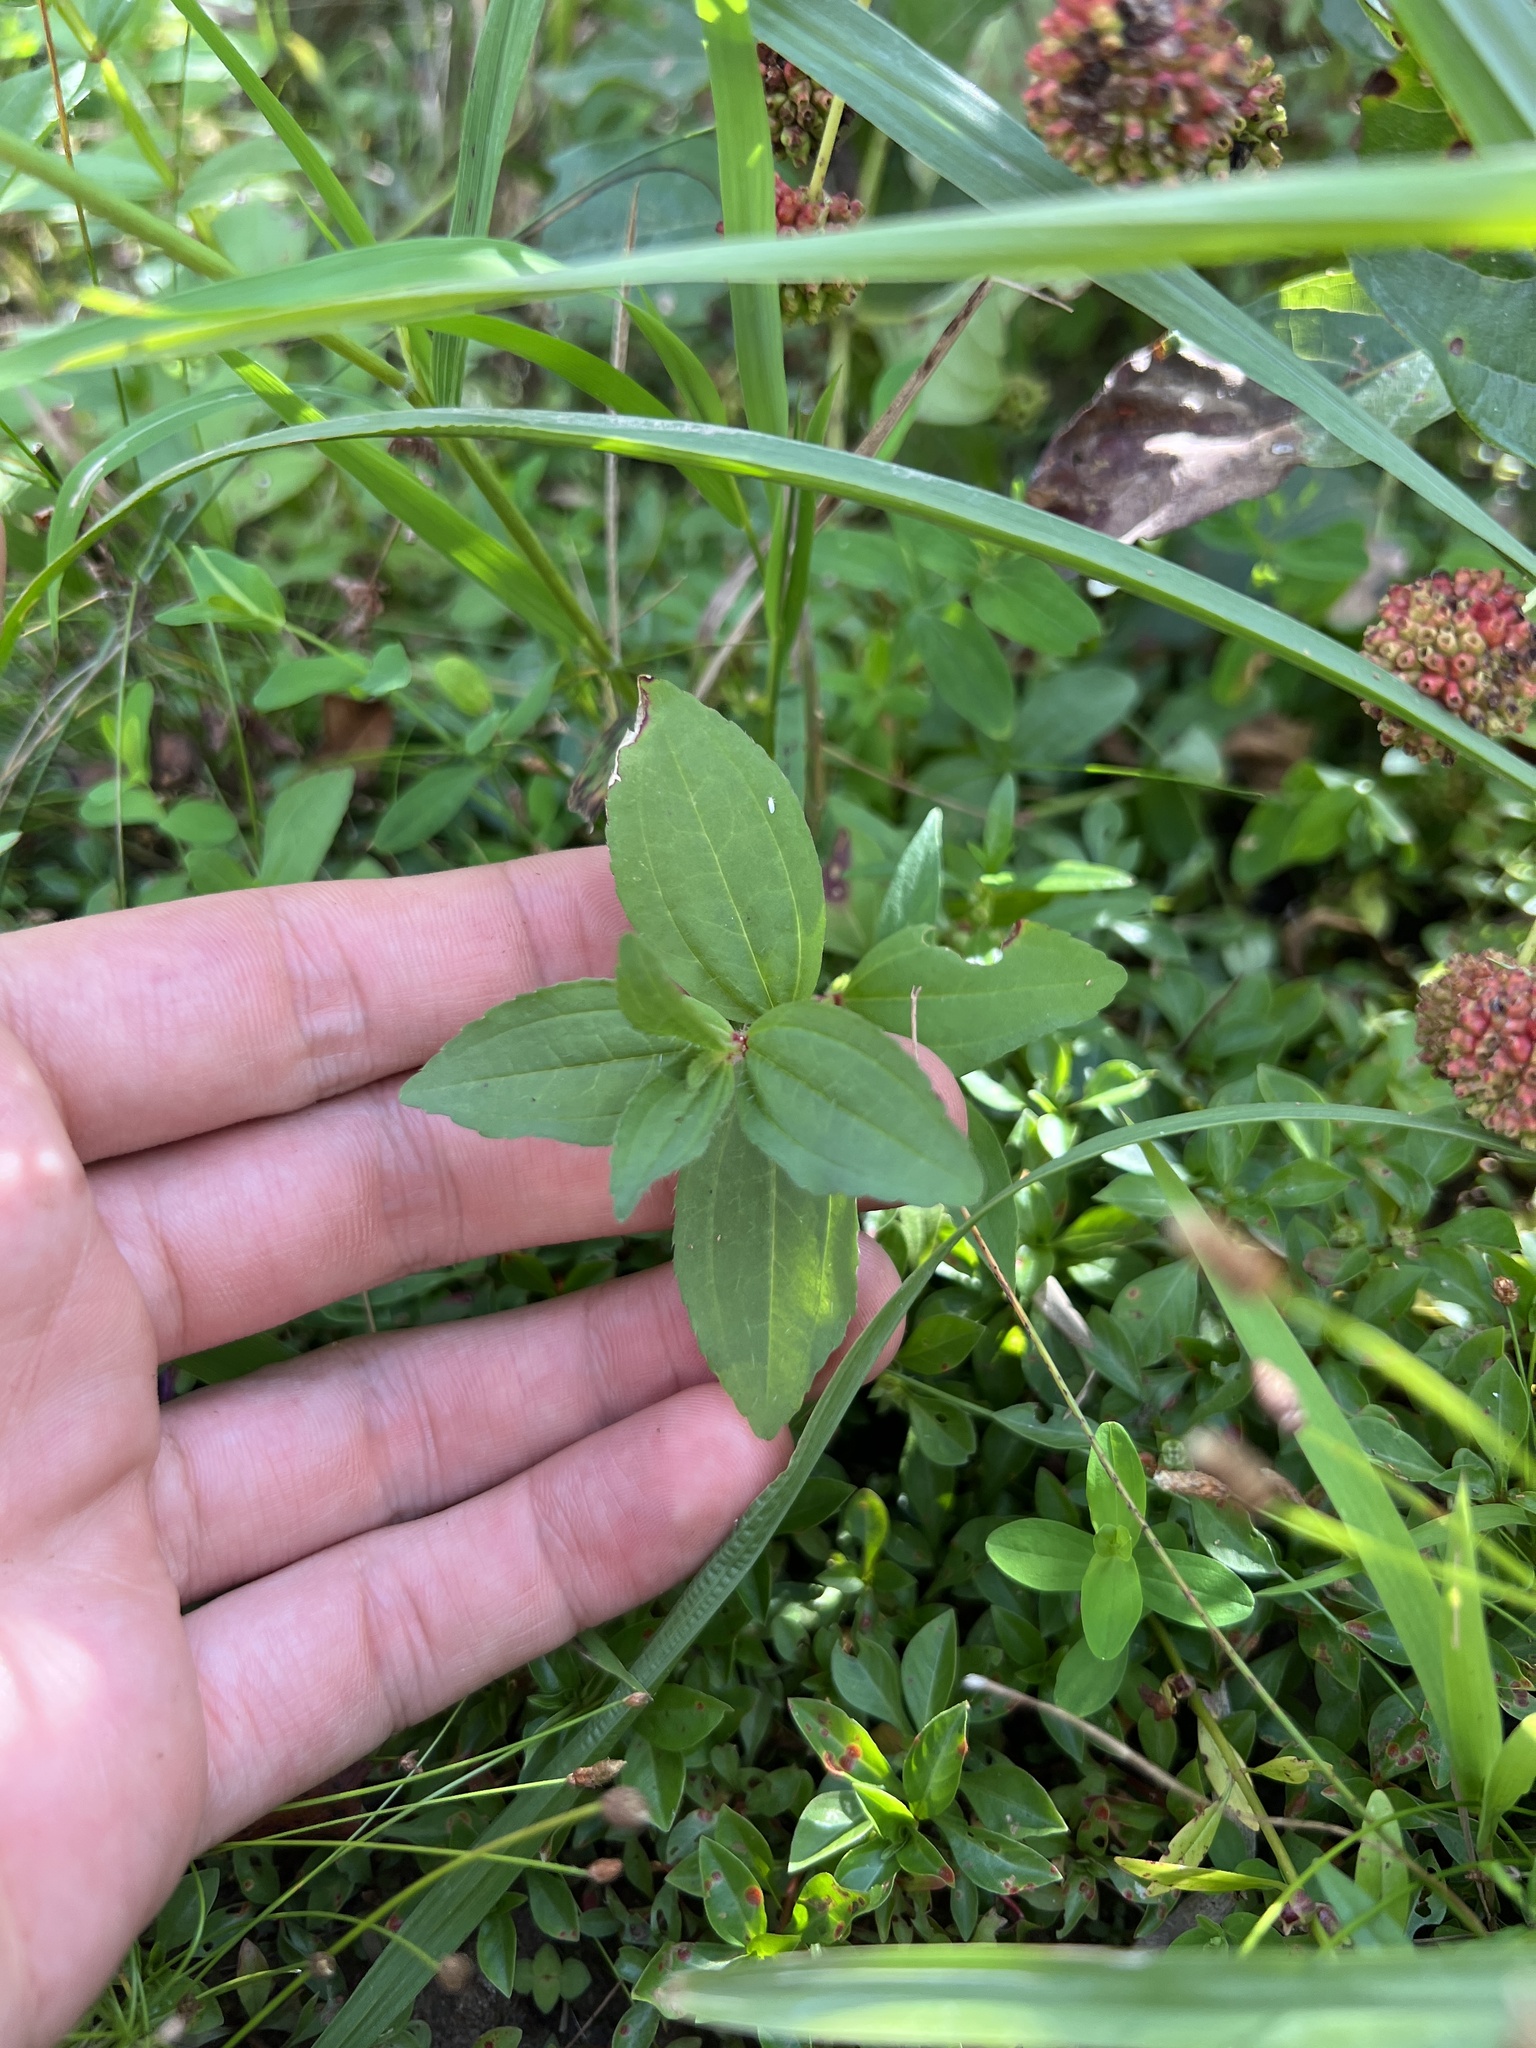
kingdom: Plantae
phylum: Tracheophyta
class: Magnoliopsida
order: Myrtales
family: Melastomataceae
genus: Rhexia
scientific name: Rhexia virginica
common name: Common meadow beauty
